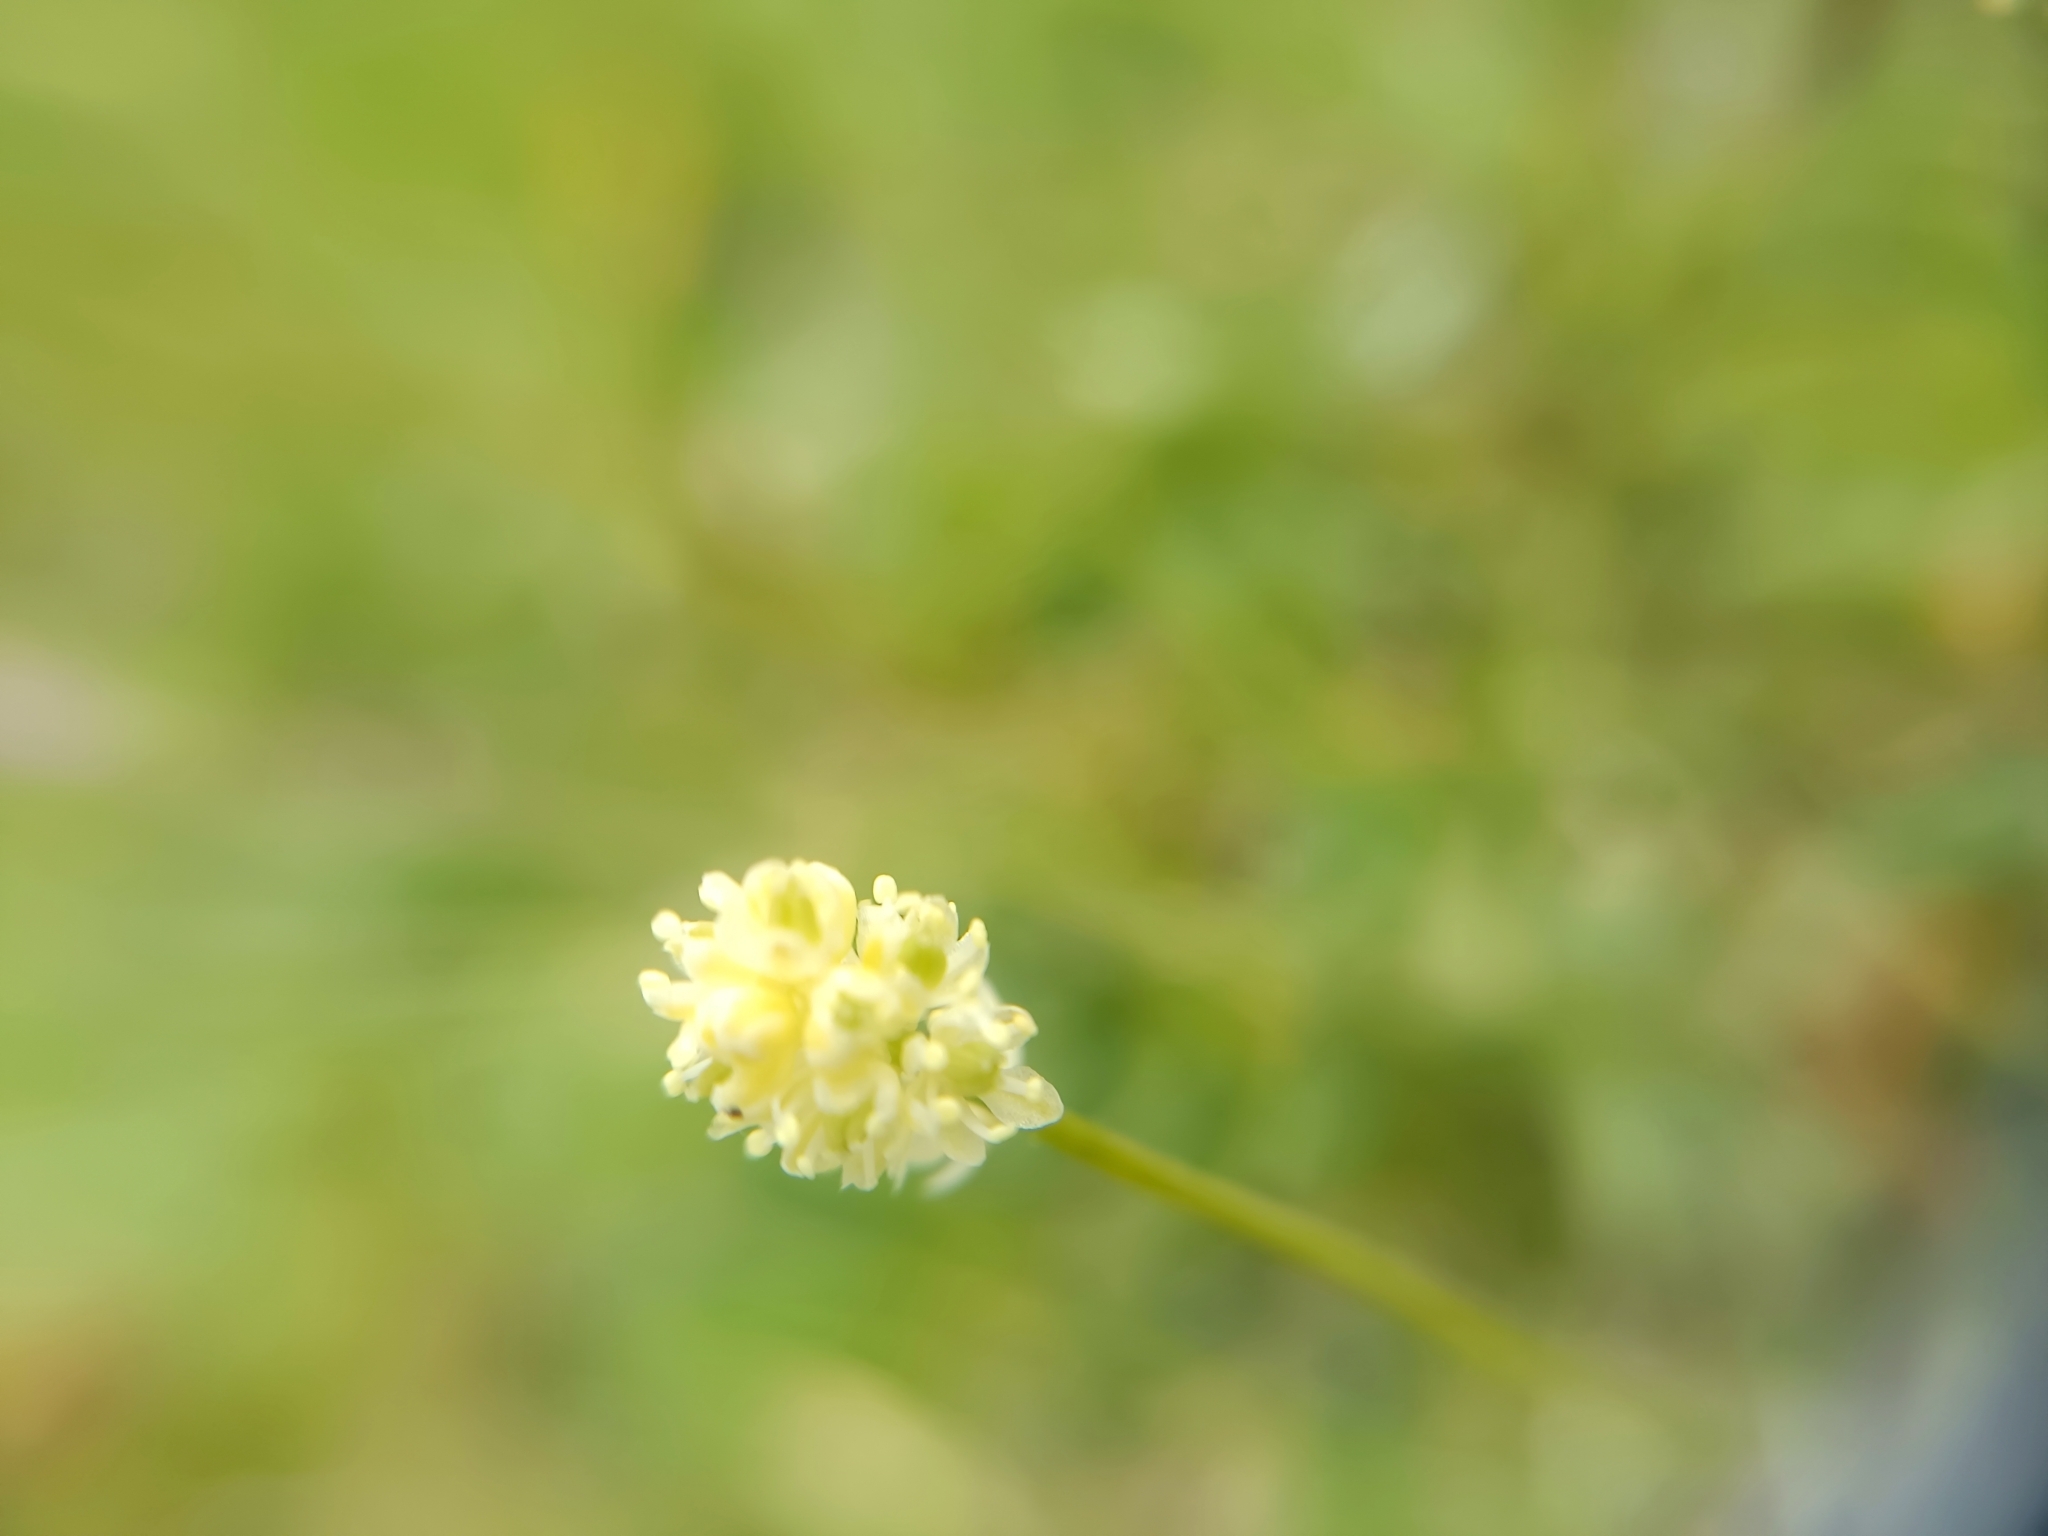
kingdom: Plantae
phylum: Tracheophyta
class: Liliopsida
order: Alismatales
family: Tofieldiaceae
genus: Tofieldia
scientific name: Tofieldia pusilla
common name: Scottish false asphodel
